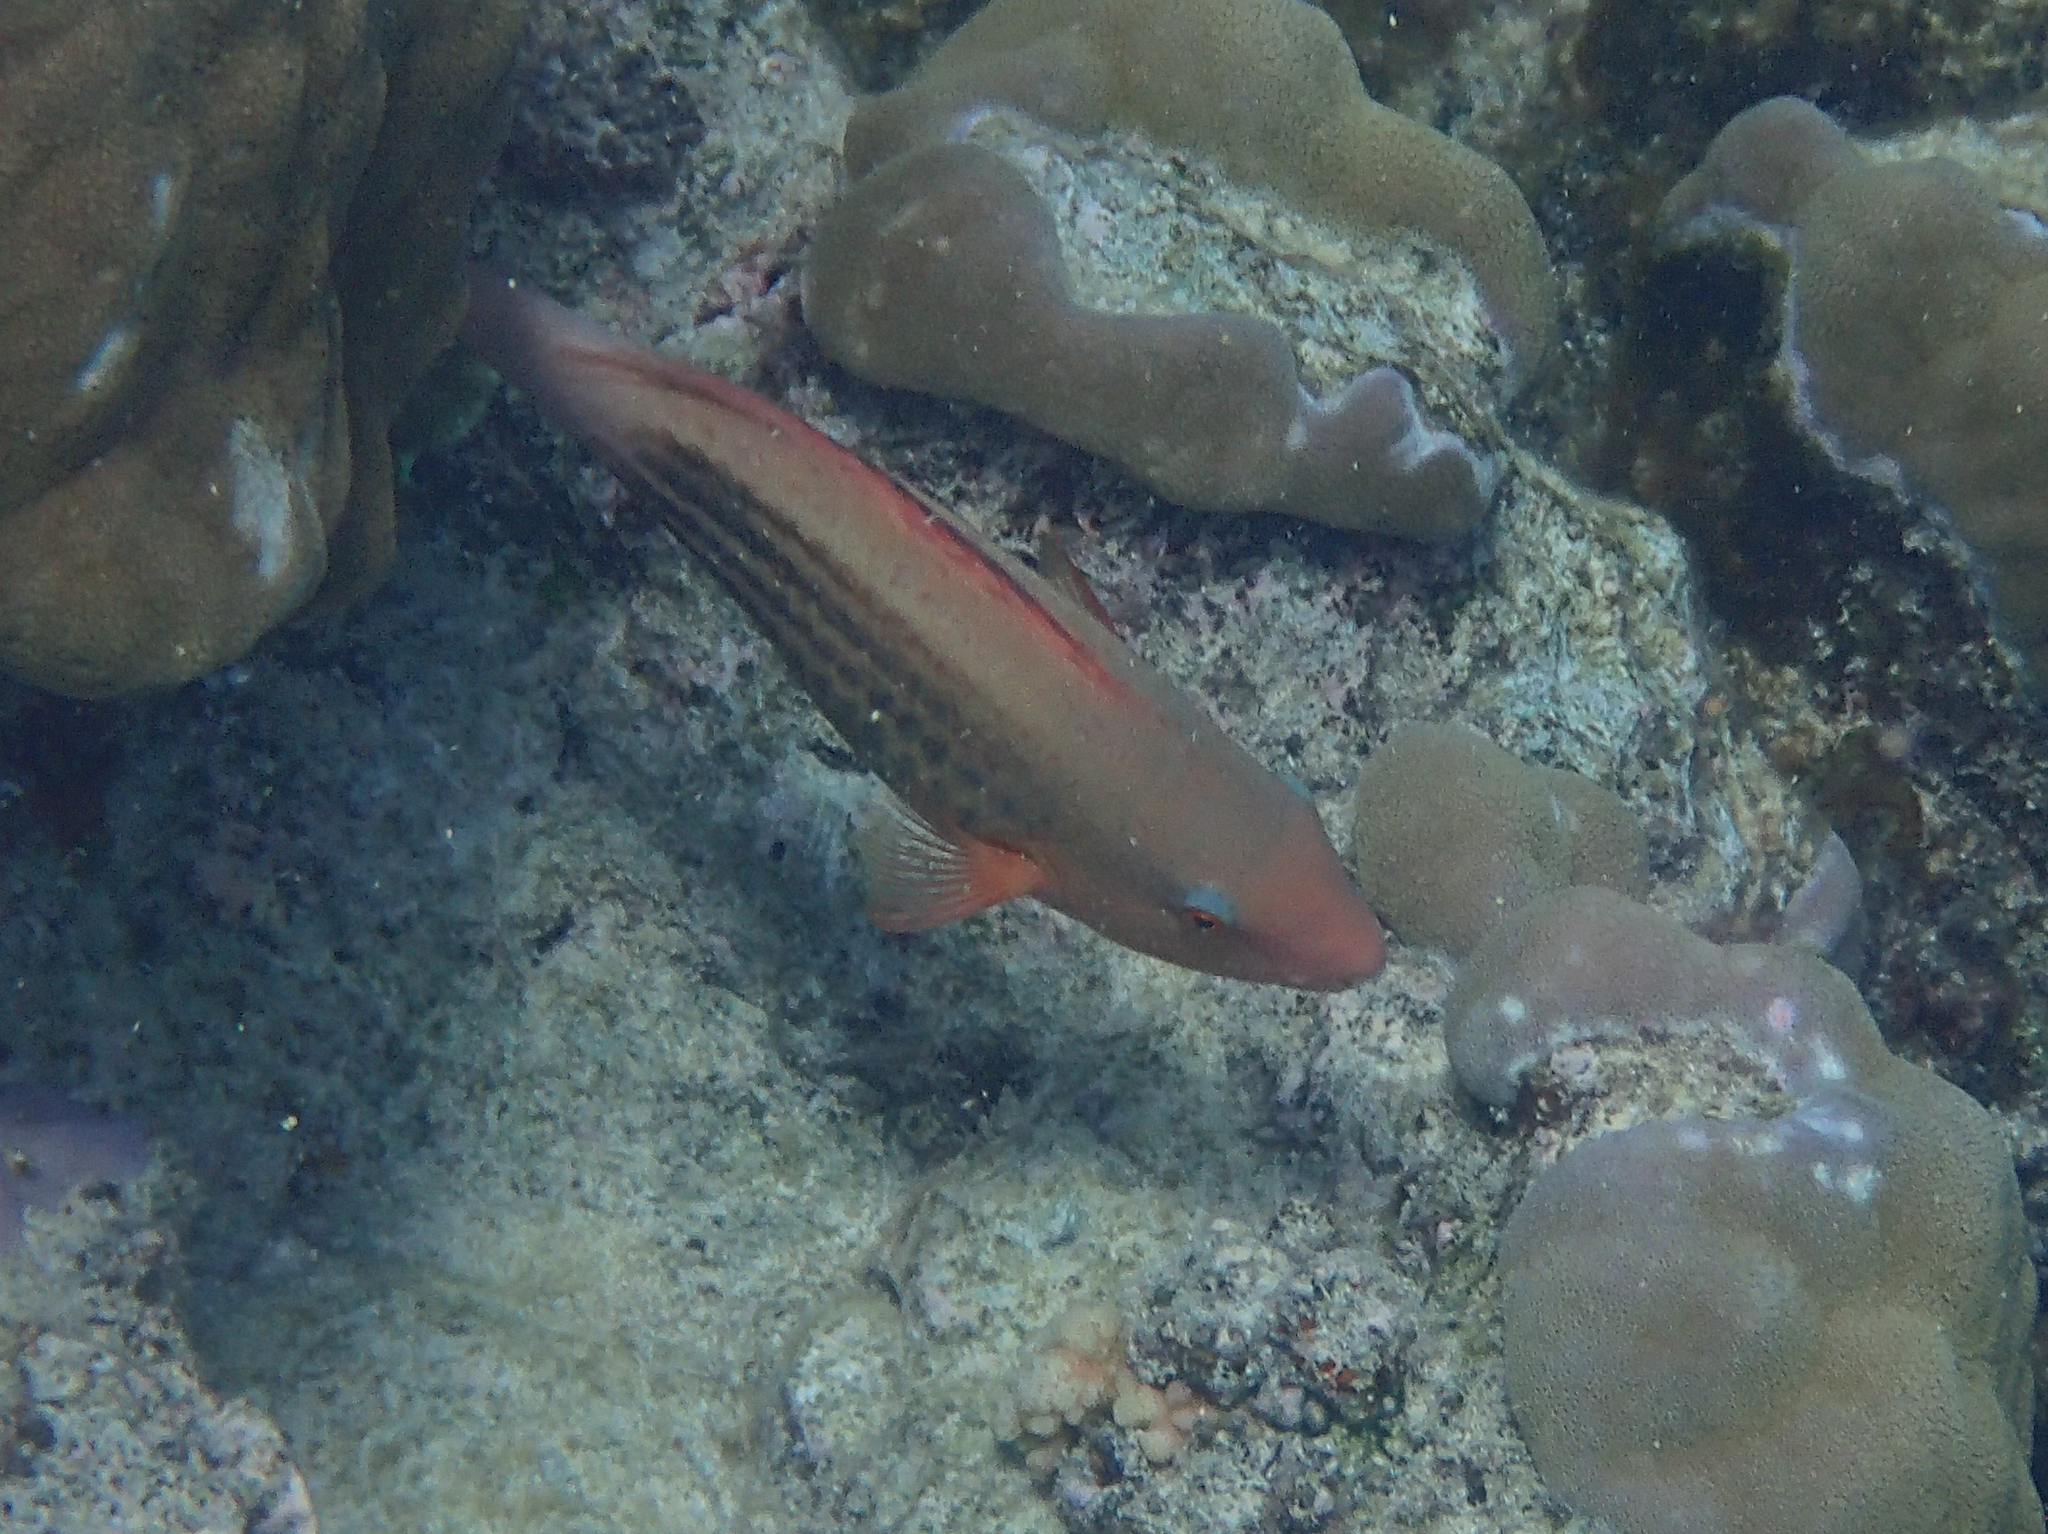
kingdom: Animalia
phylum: Chordata
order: Perciformes
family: Scaridae
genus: Scarus
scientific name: Scarus frenatus
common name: Bridled parrotfish
